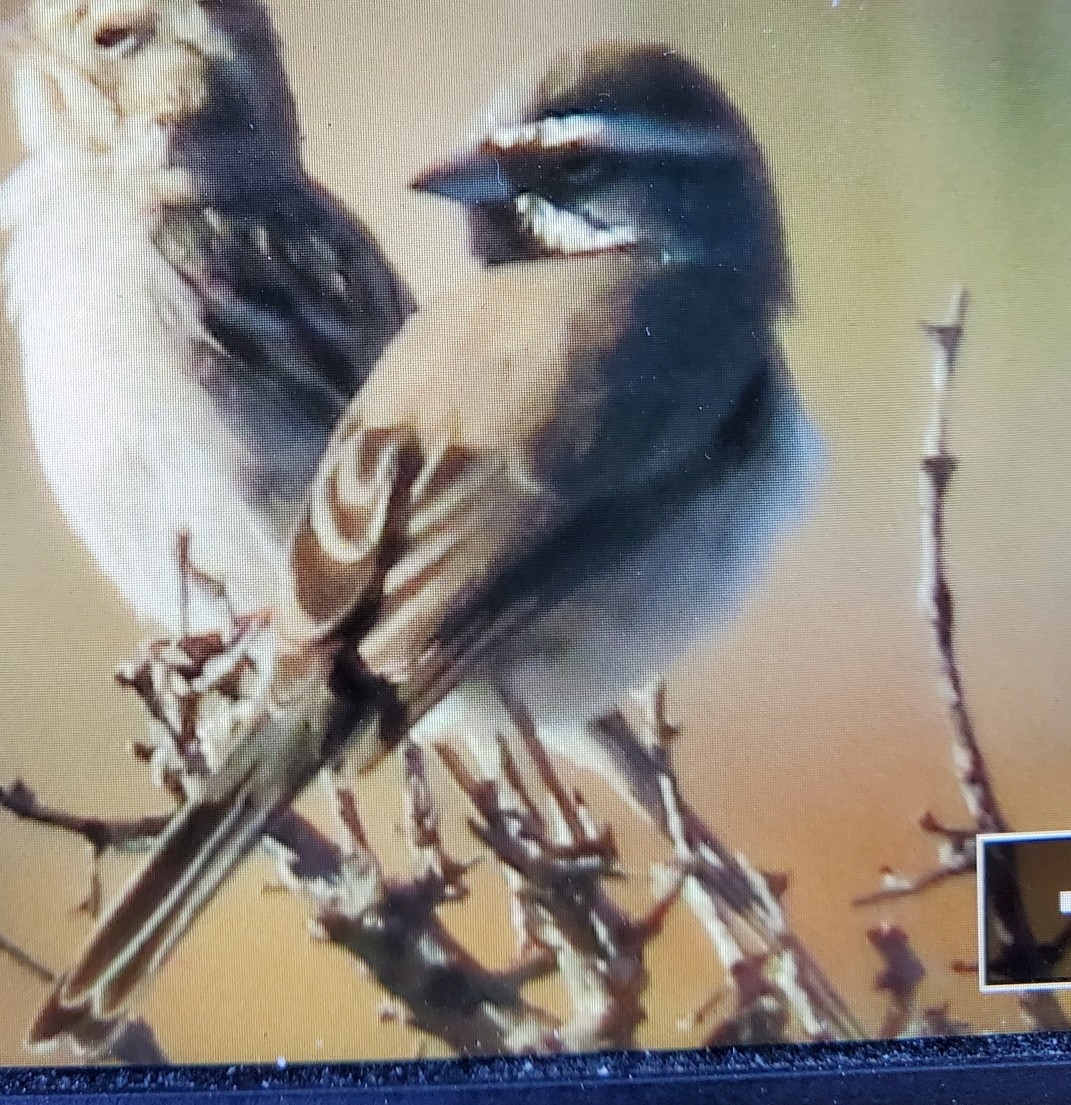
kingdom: Animalia
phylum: Chordata
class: Aves
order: Passeriformes
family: Passerellidae
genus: Amphispiza
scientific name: Amphispiza bilineata
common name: Black-throated sparrow
